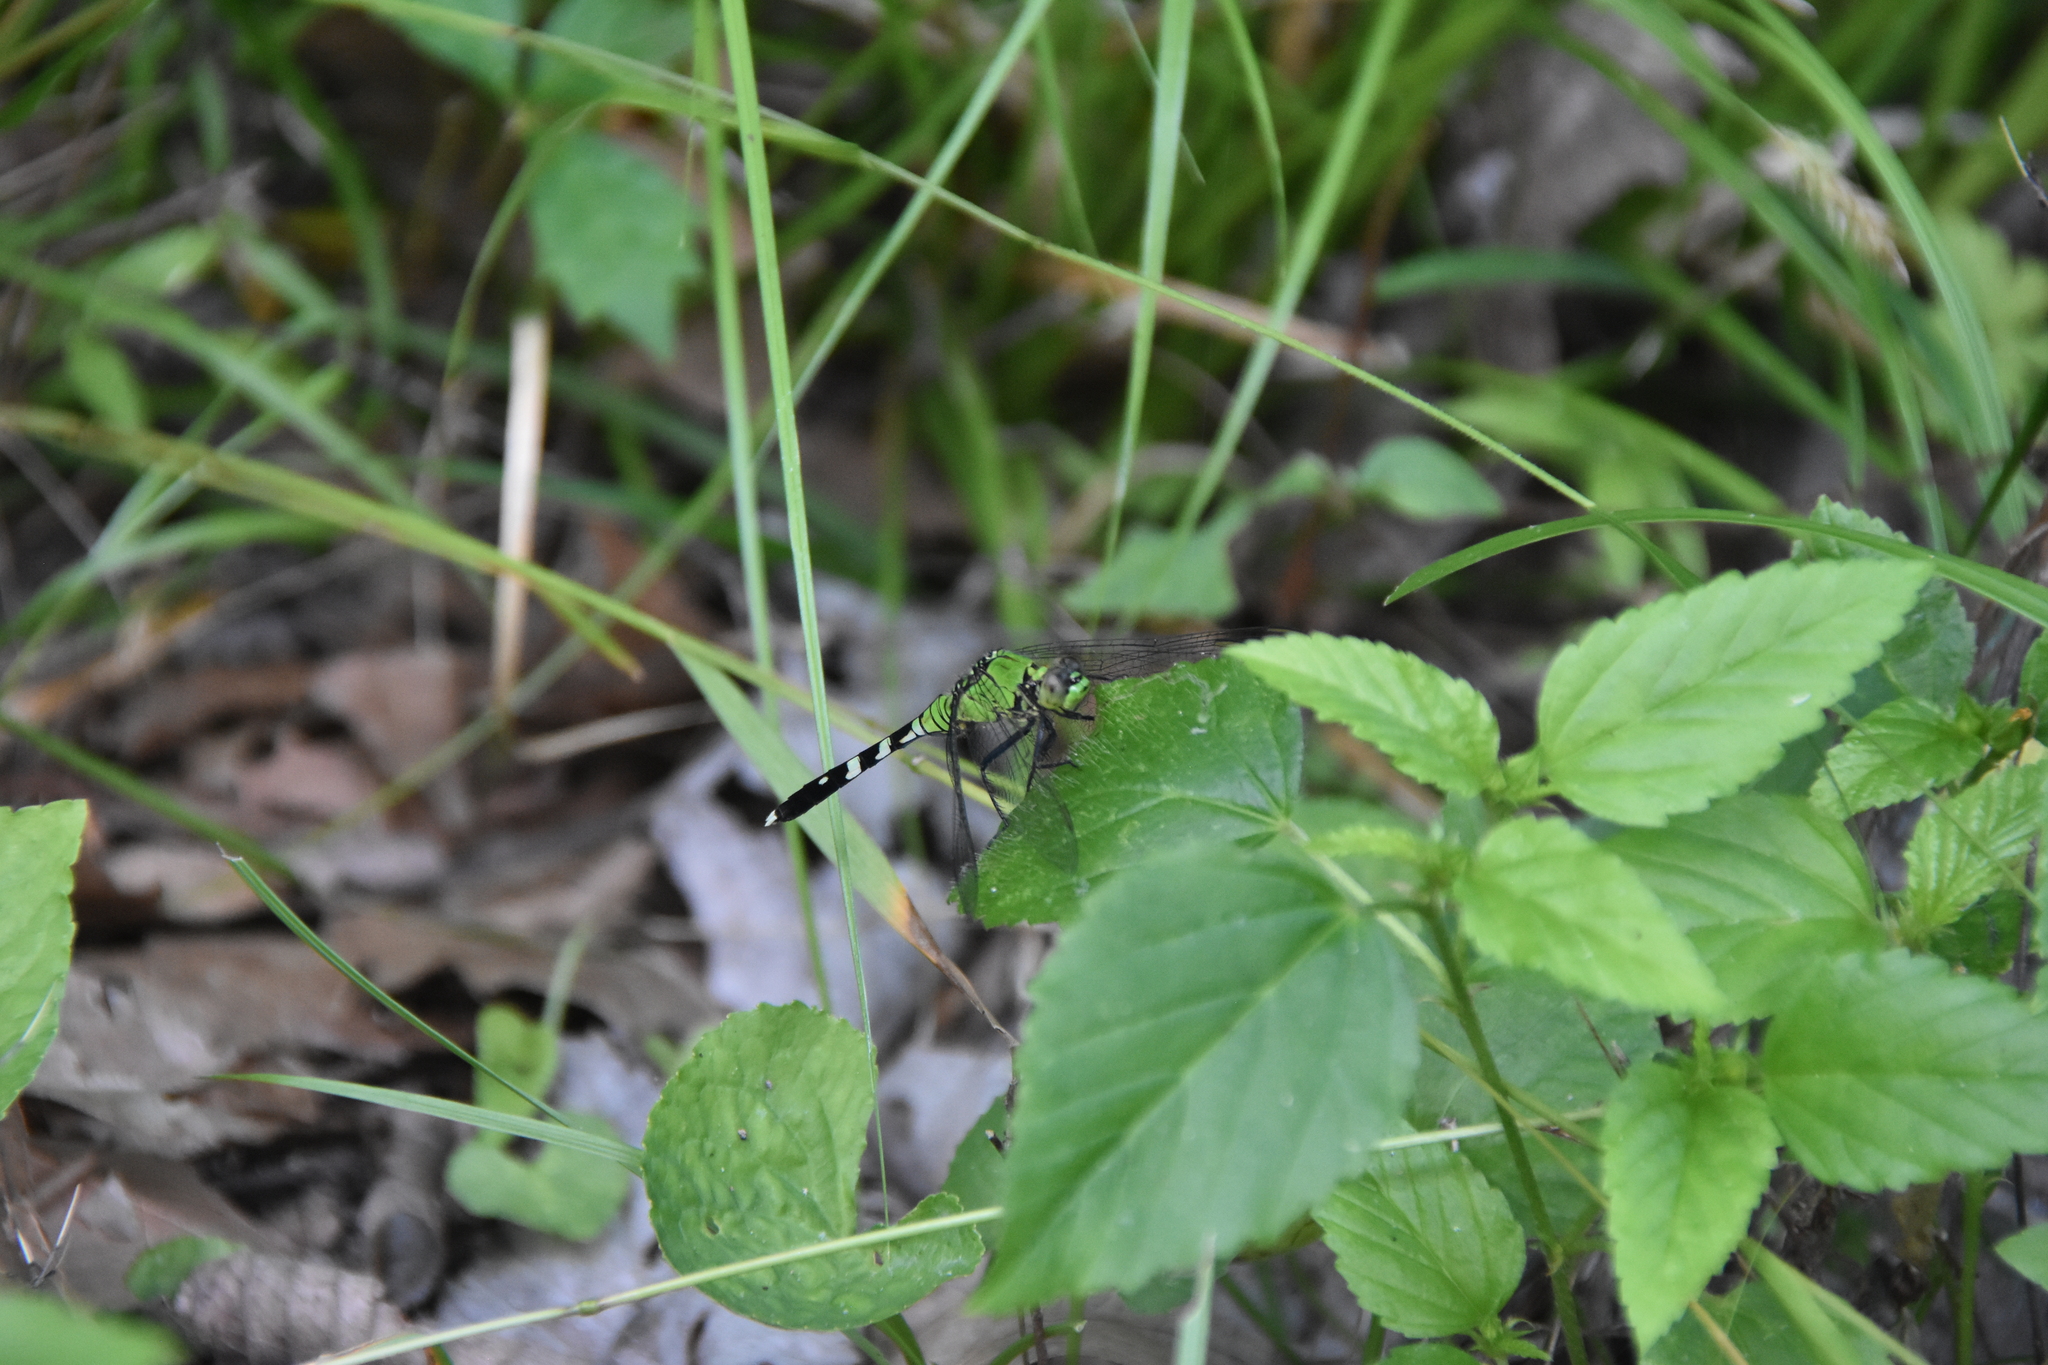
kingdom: Animalia
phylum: Arthropoda
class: Insecta
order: Odonata
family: Libellulidae
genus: Erythemis
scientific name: Erythemis simplicicollis
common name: Eastern pondhawk
